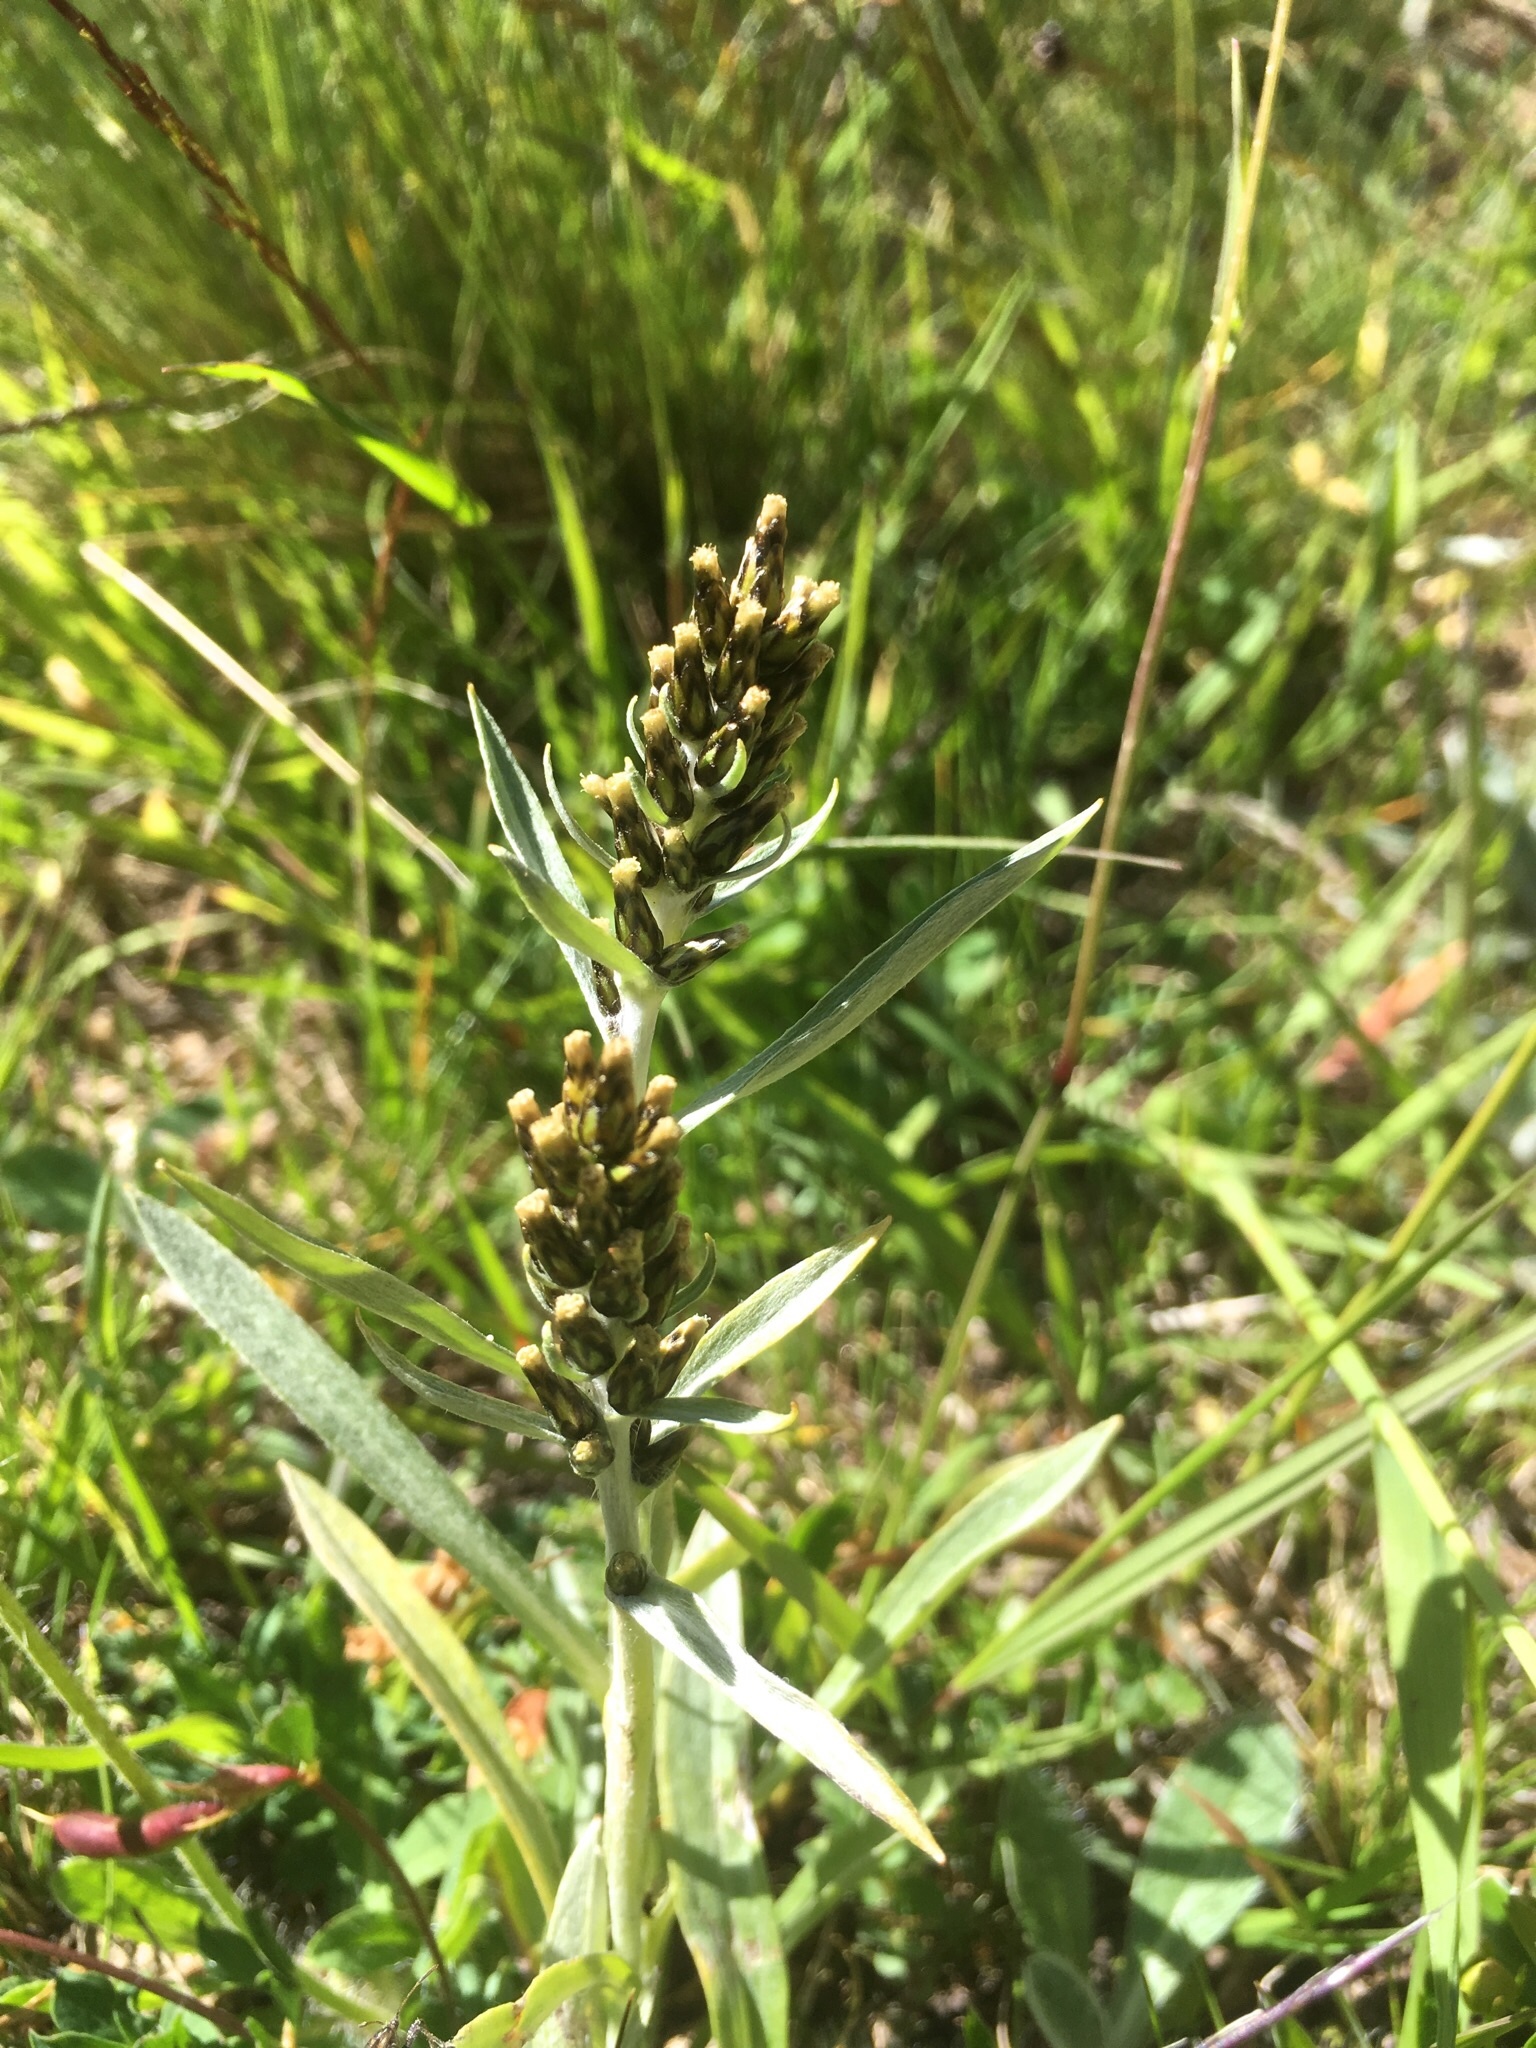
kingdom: Plantae
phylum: Tracheophyta
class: Magnoliopsida
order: Asterales
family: Asteraceae
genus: Omalotheca
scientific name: Omalotheca norvegica
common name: Norwegian arctic-cudweed
